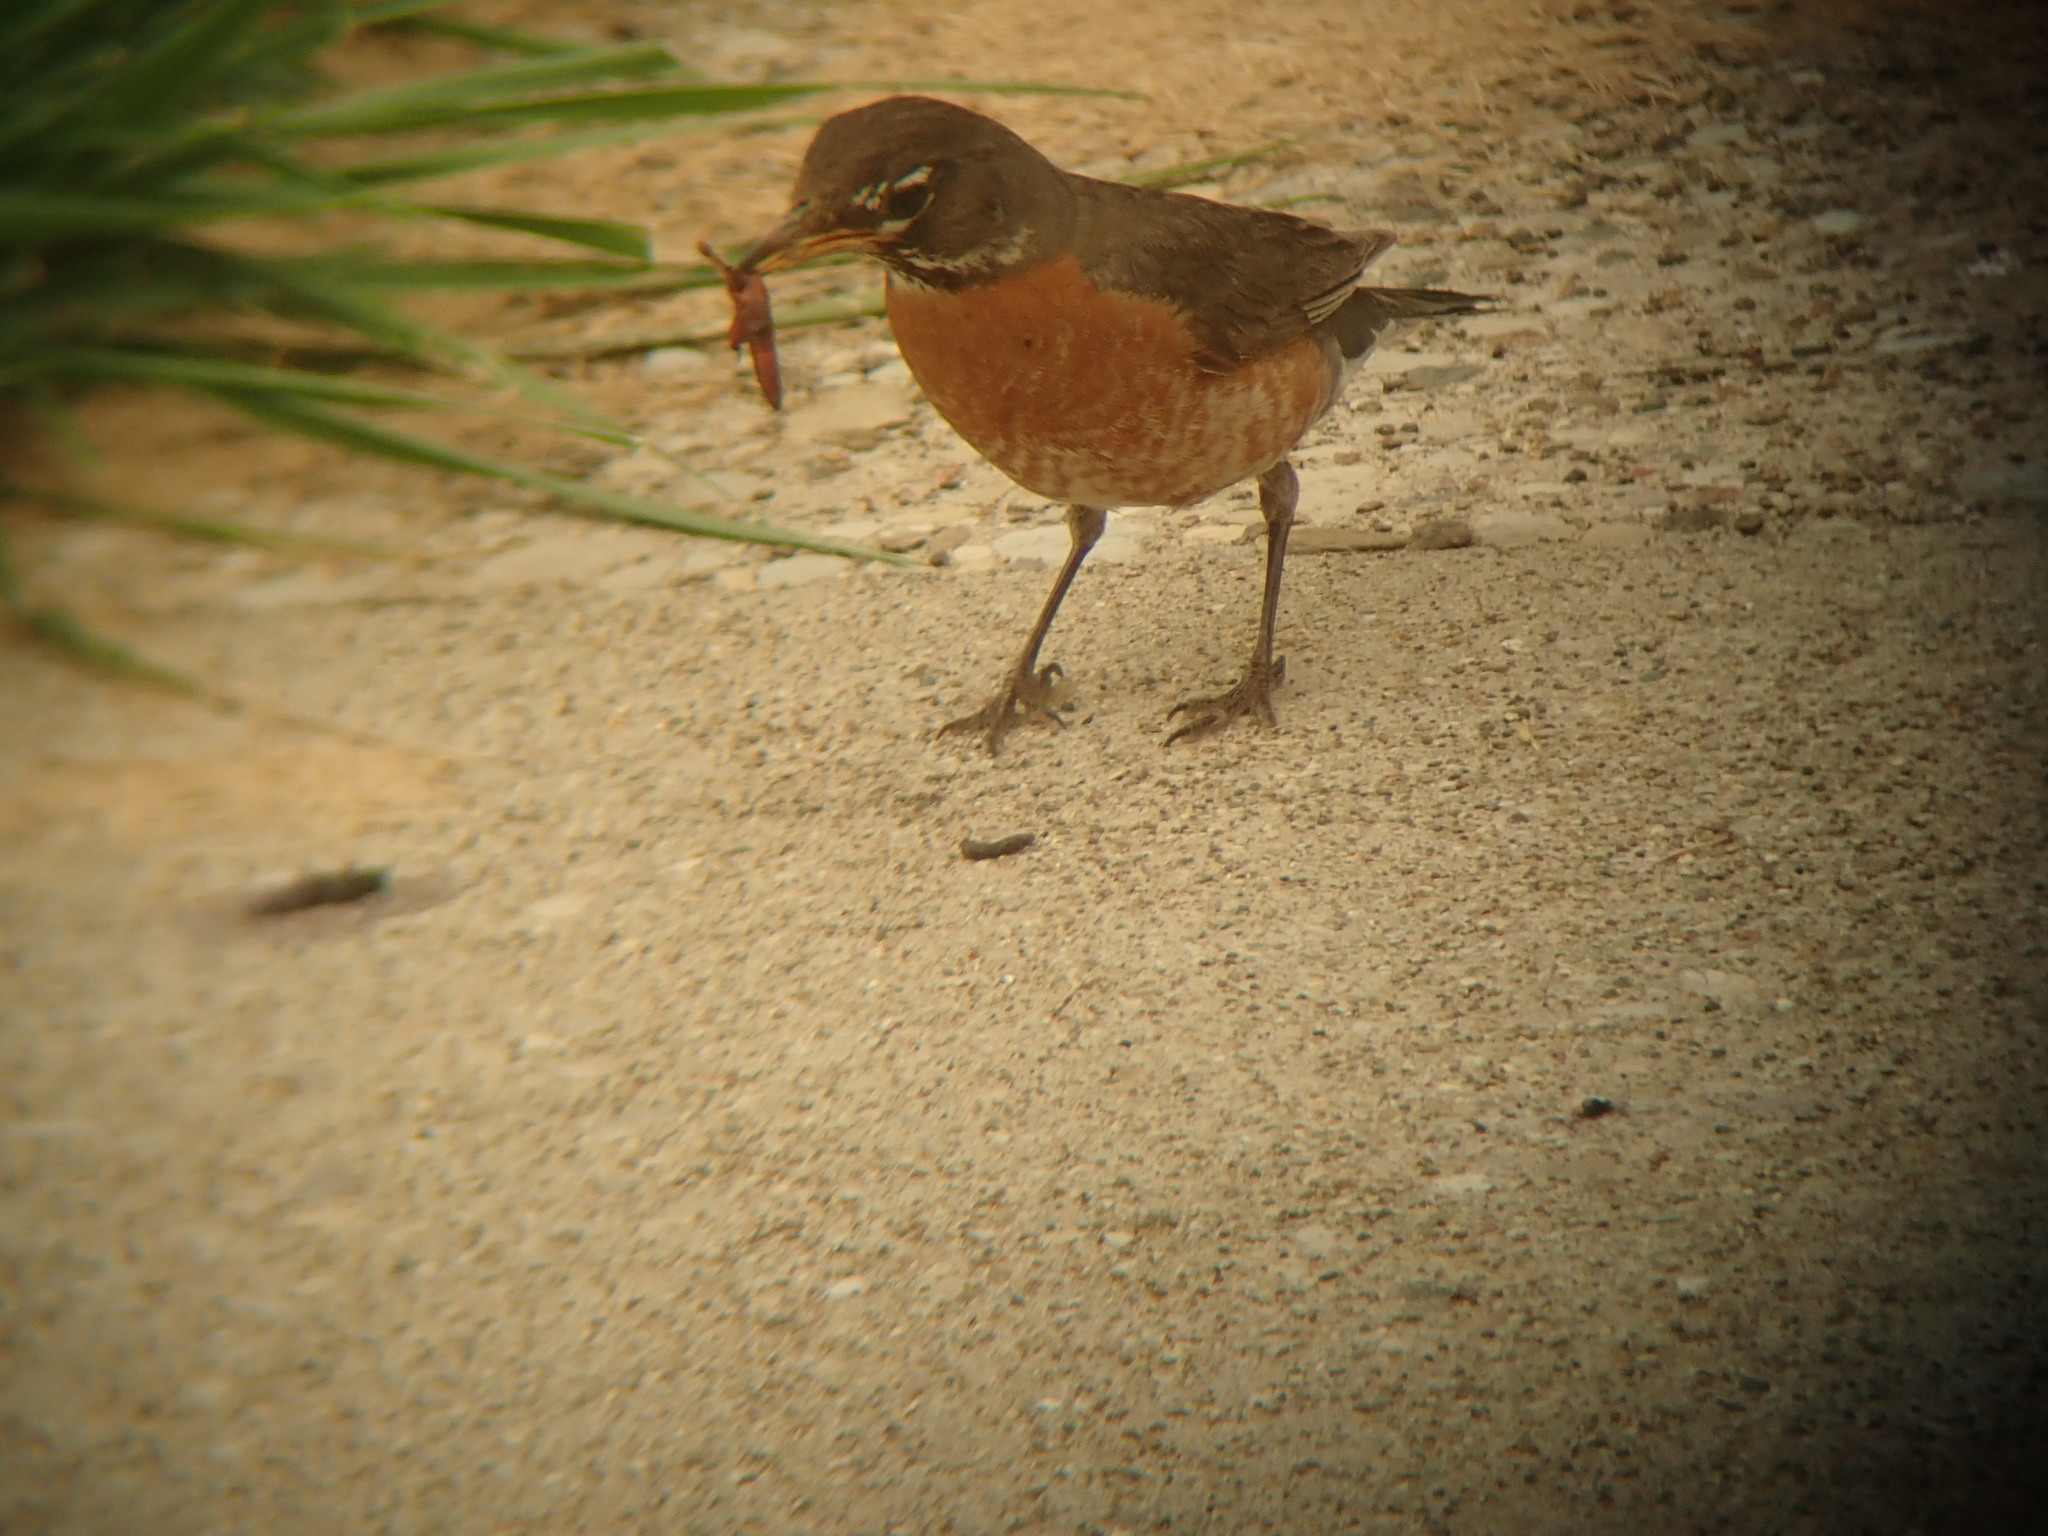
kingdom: Animalia
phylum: Chordata
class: Aves
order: Passeriformes
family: Turdidae
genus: Turdus
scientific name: Turdus migratorius
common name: American robin
